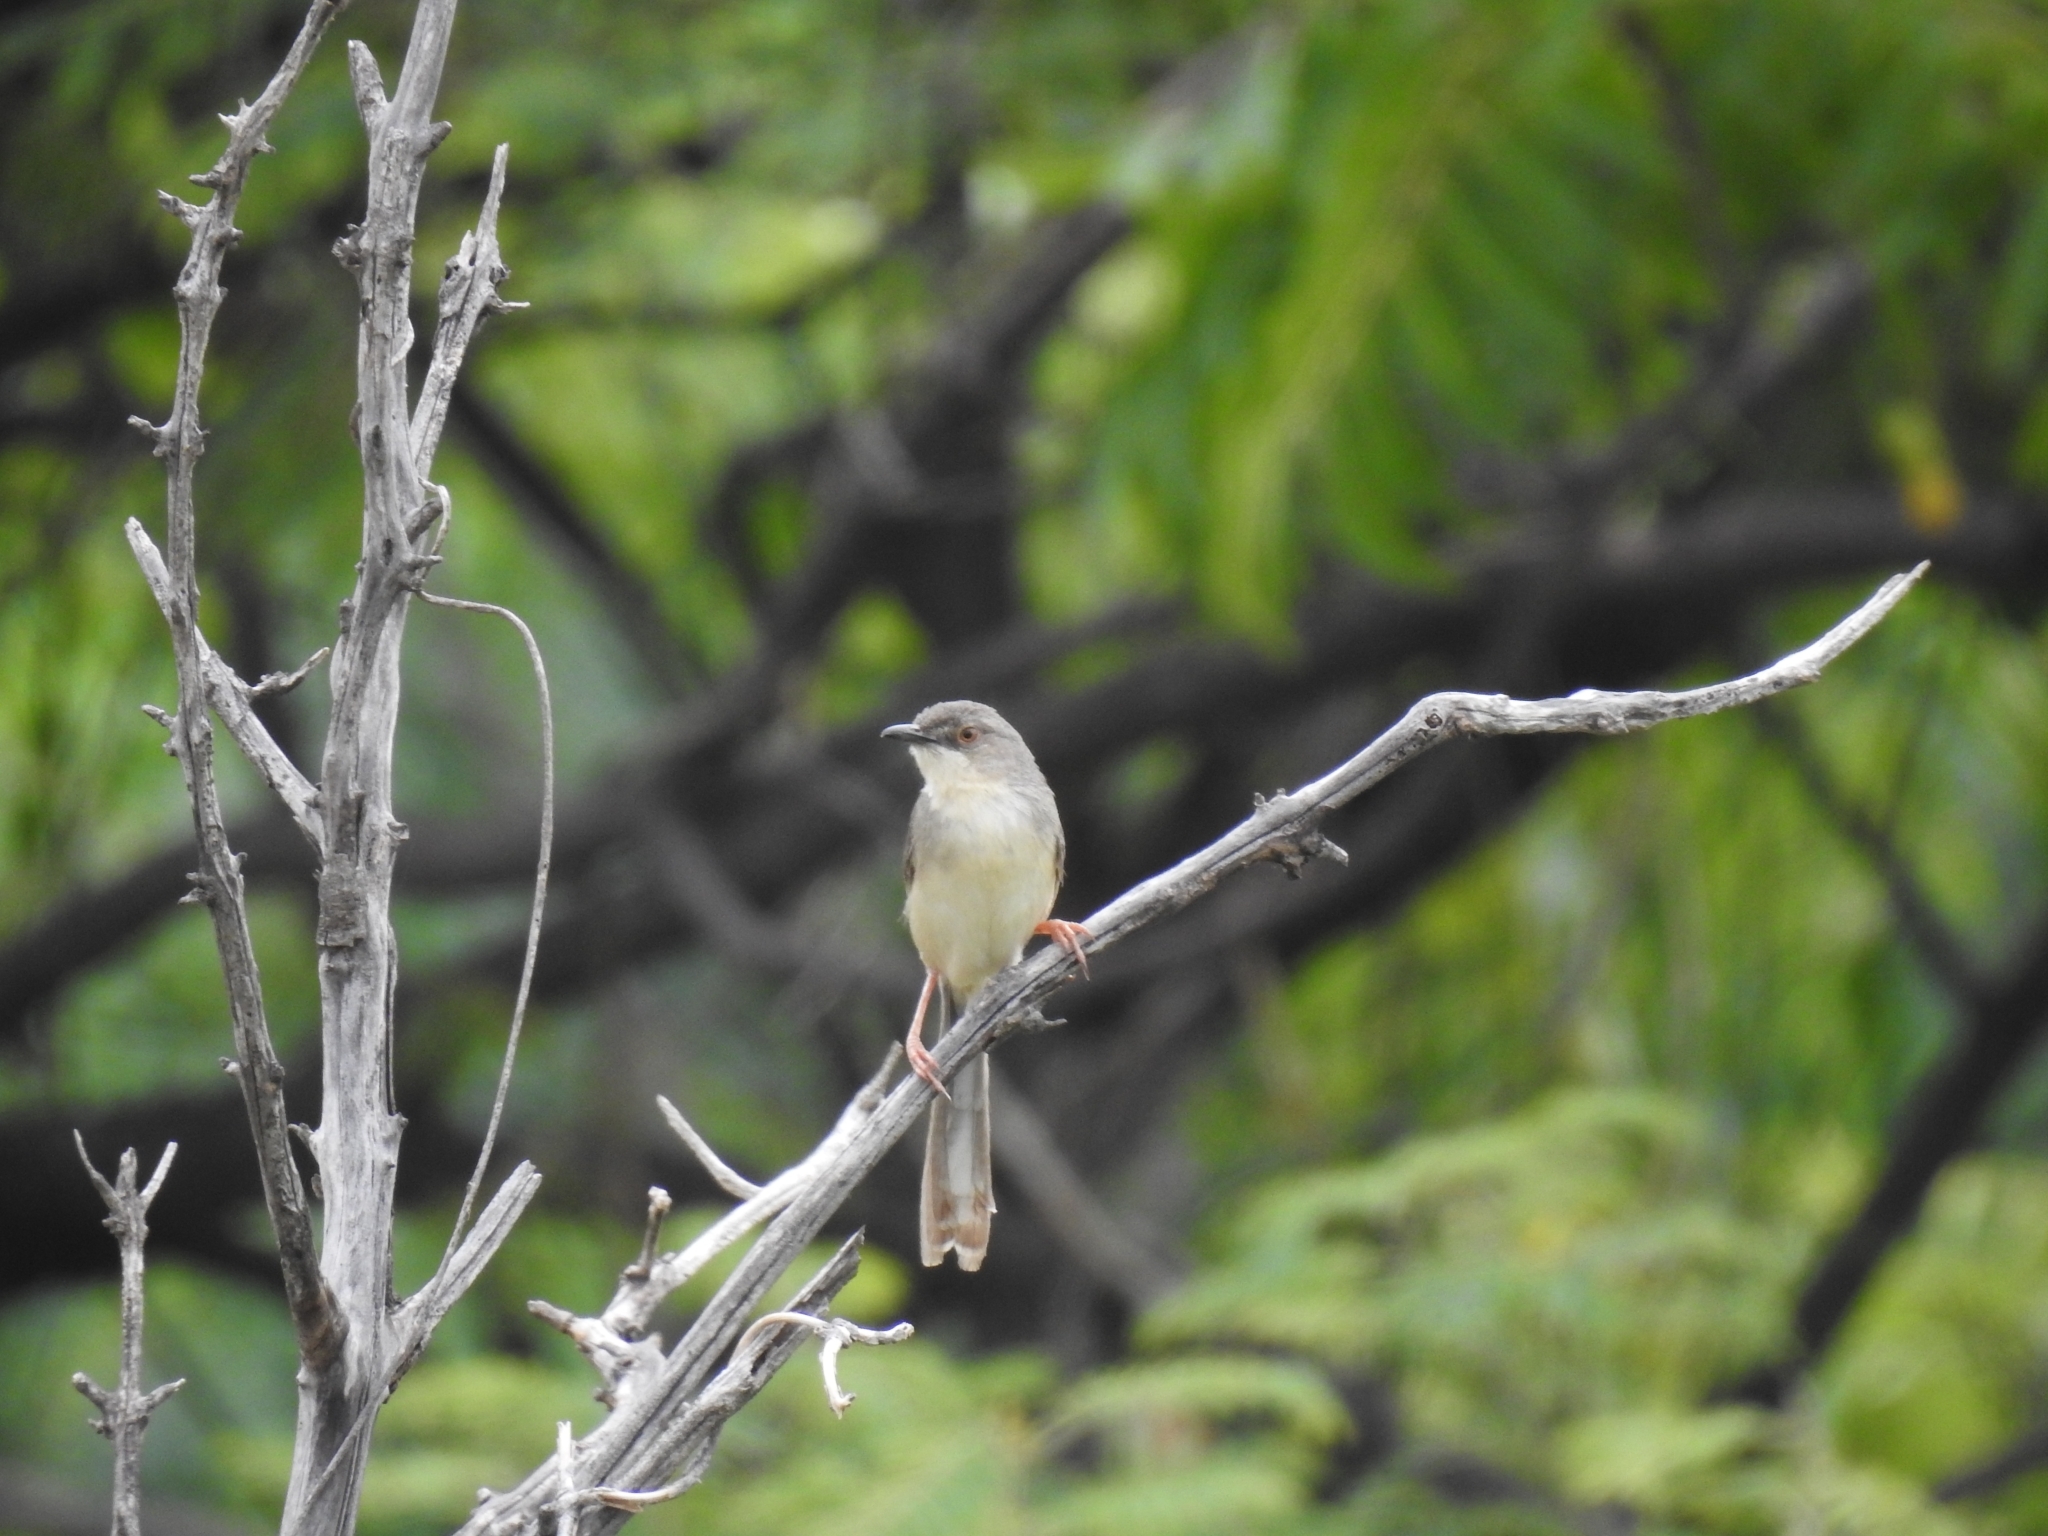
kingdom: Animalia
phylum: Chordata
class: Aves
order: Passeriformes
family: Cisticolidae
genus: Prinia
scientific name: Prinia sylvatica
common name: Jungle prinia
